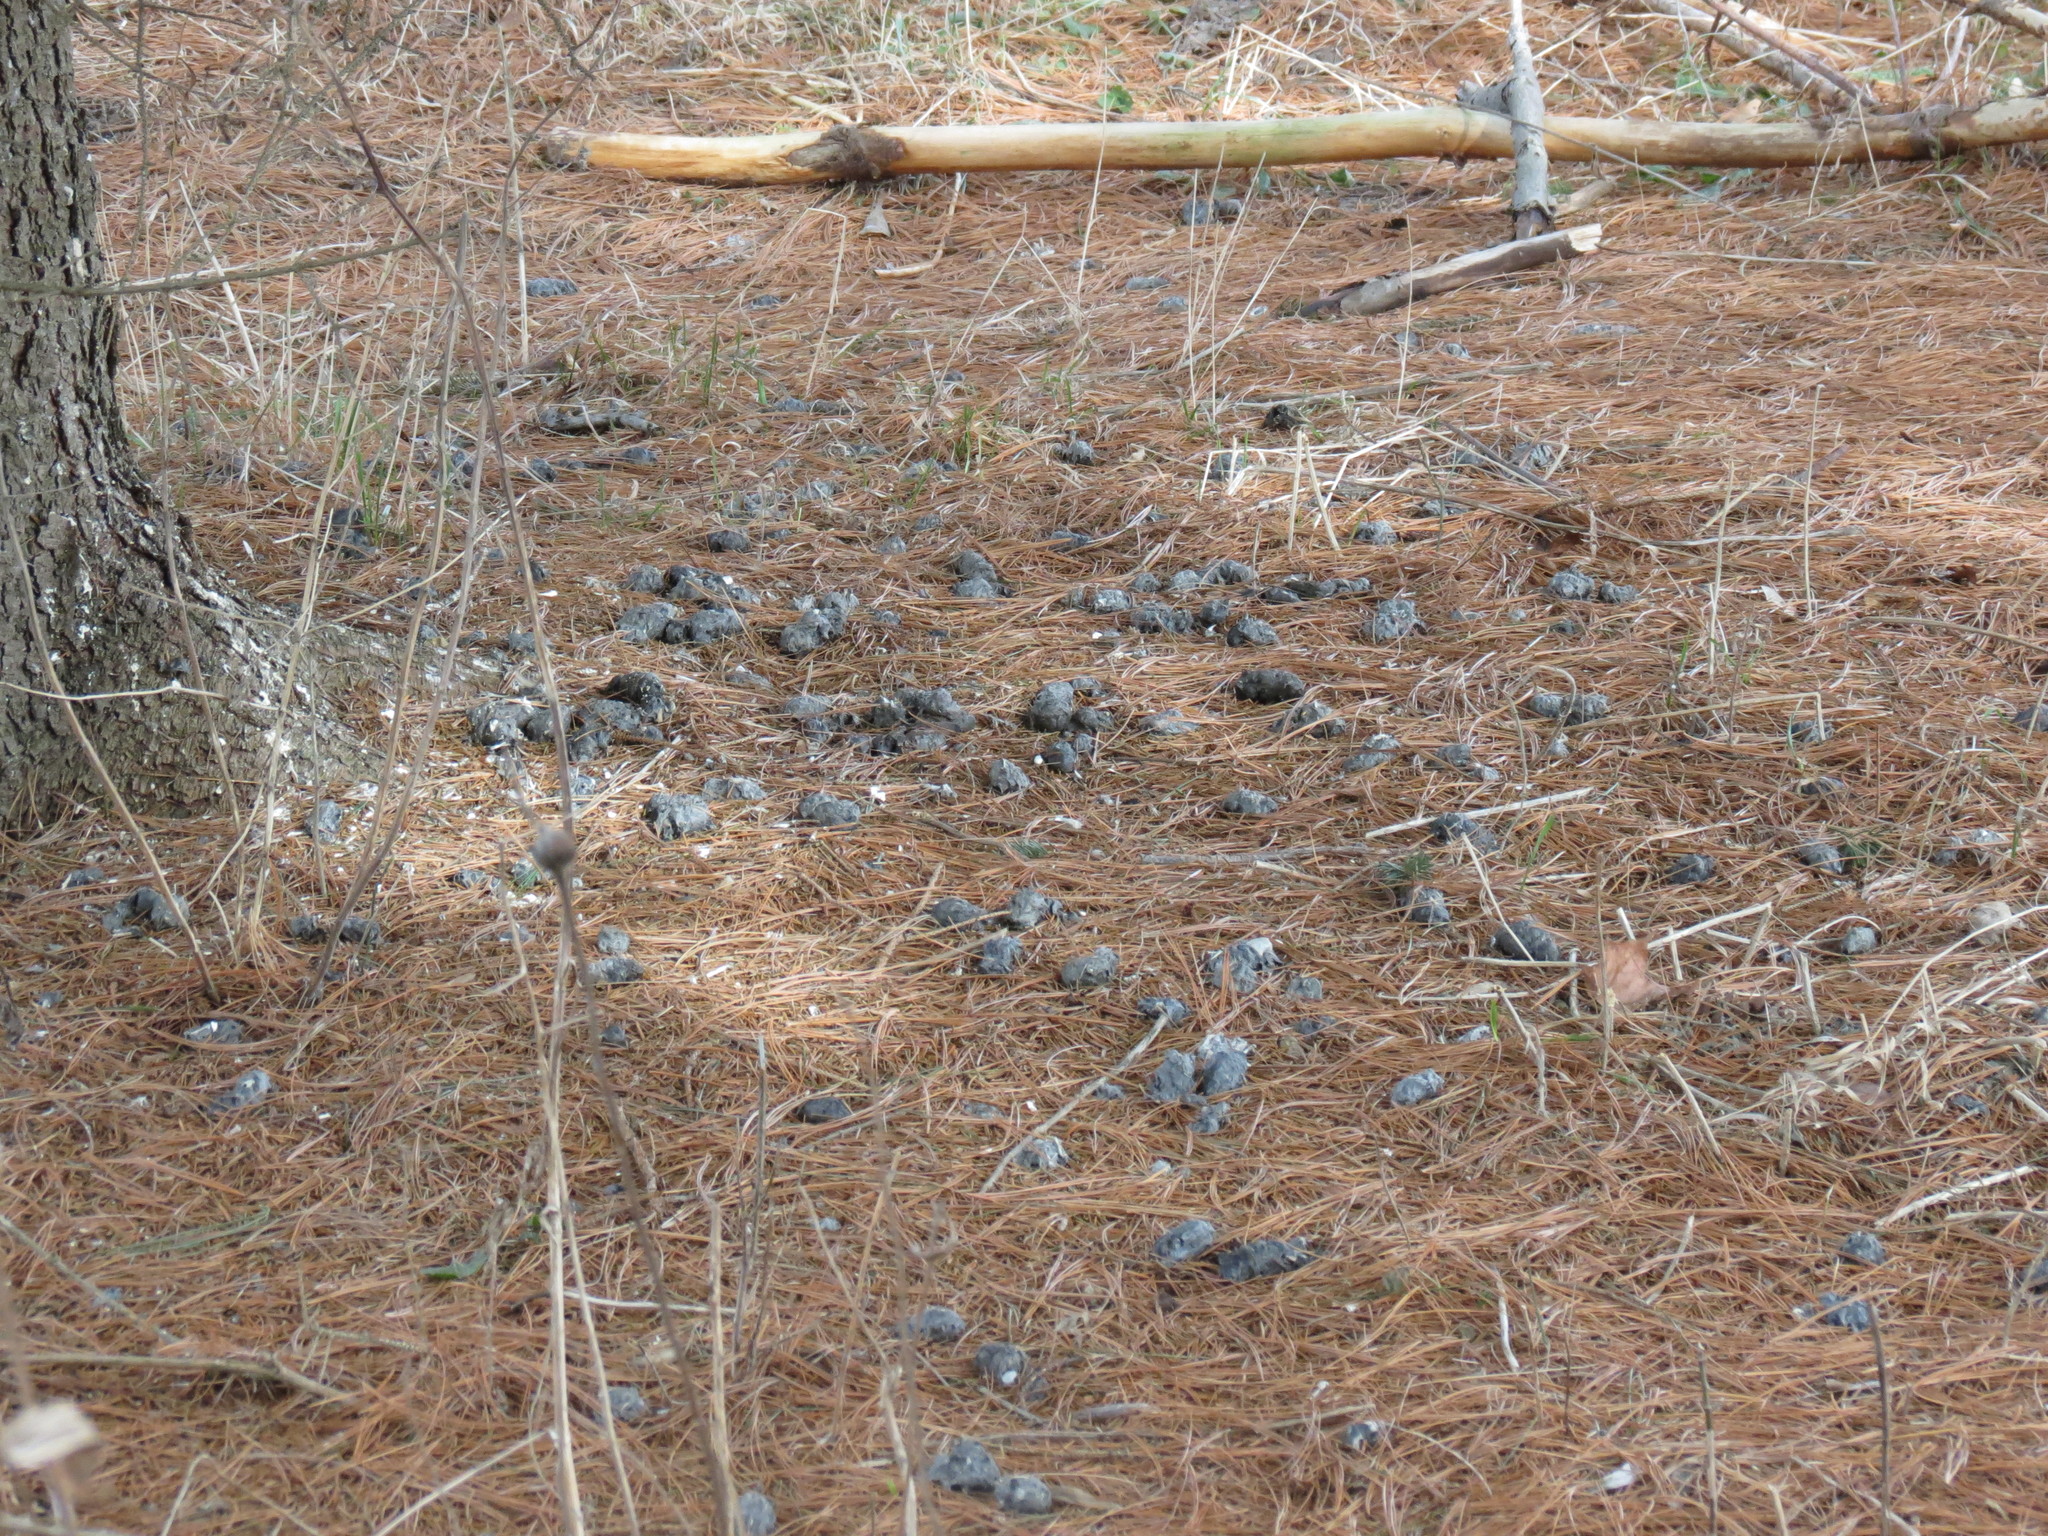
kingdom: Animalia
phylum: Chordata
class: Aves
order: Strigiformes
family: Strigidae
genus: Asio
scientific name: Asio otus
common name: Long-eared owl
